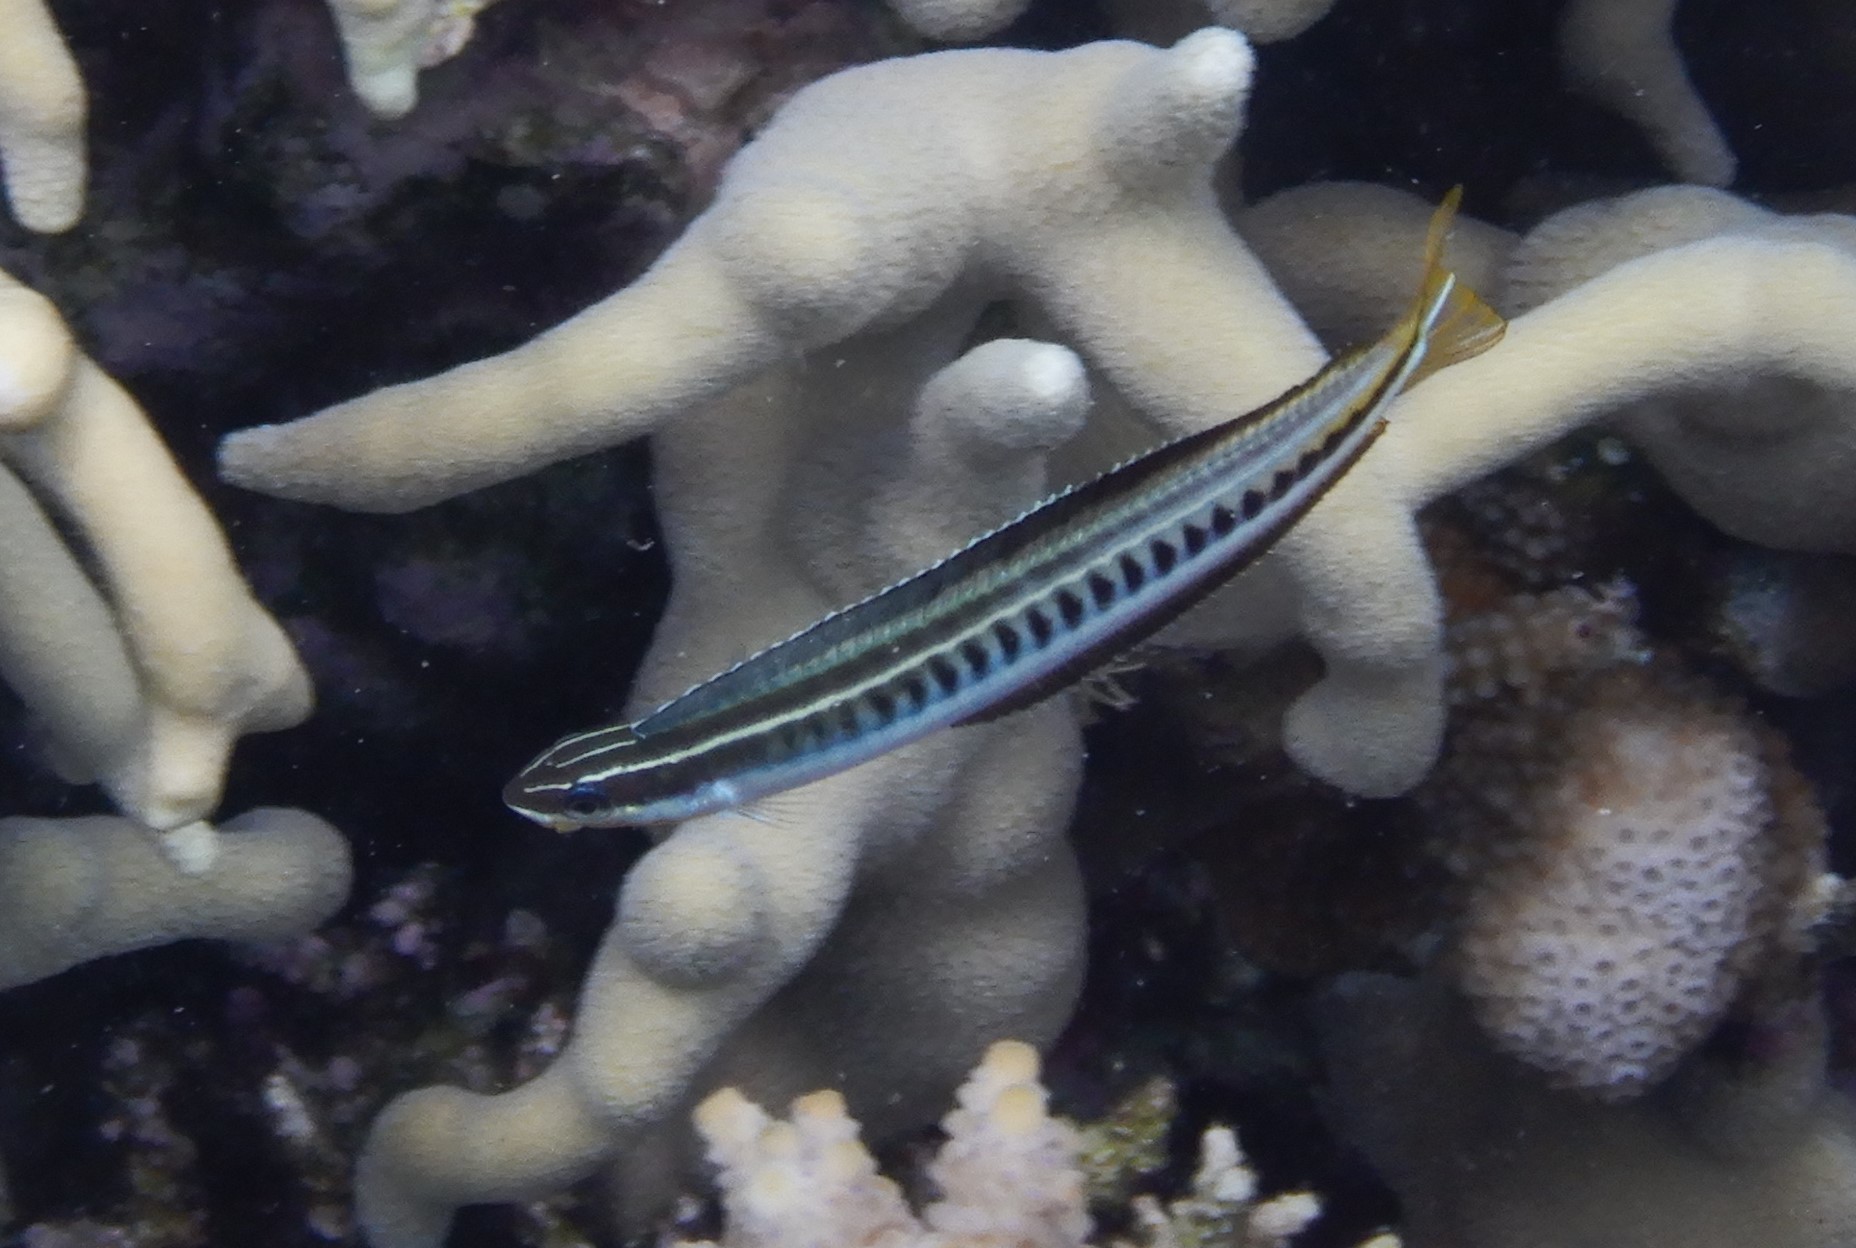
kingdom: Animalia
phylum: Chordata
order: Perciformes
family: Blenniidae
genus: Plagiotremus
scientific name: Plagiotremus tapeinosoma
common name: Hit and run blenny
